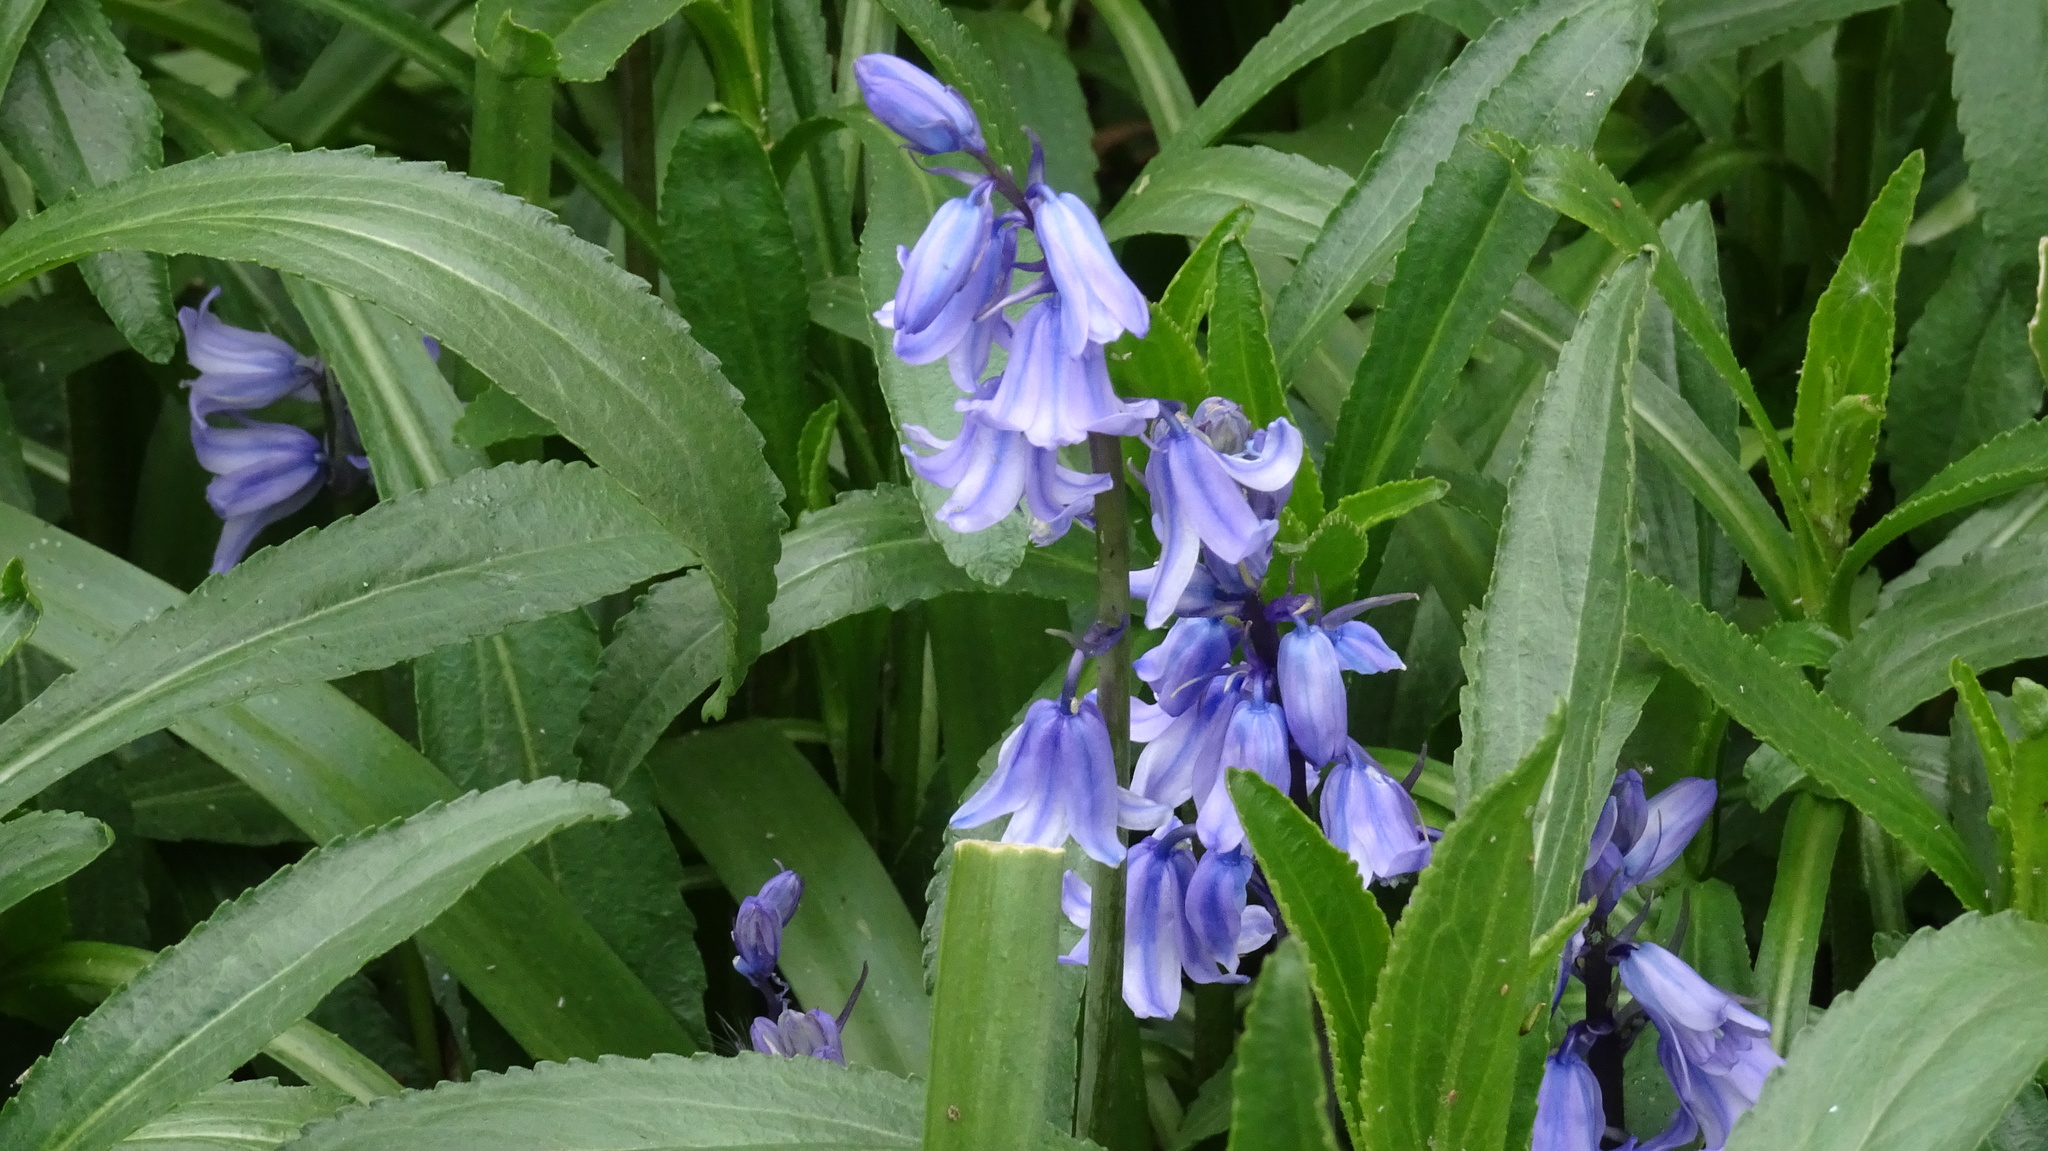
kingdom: Plantae
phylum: Tracheophyta
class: Liliopsida
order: Asparagales
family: Asparagaceae
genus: Hyacinthoides
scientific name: Hyacinthoides massartiana
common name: Hyacinthoides
